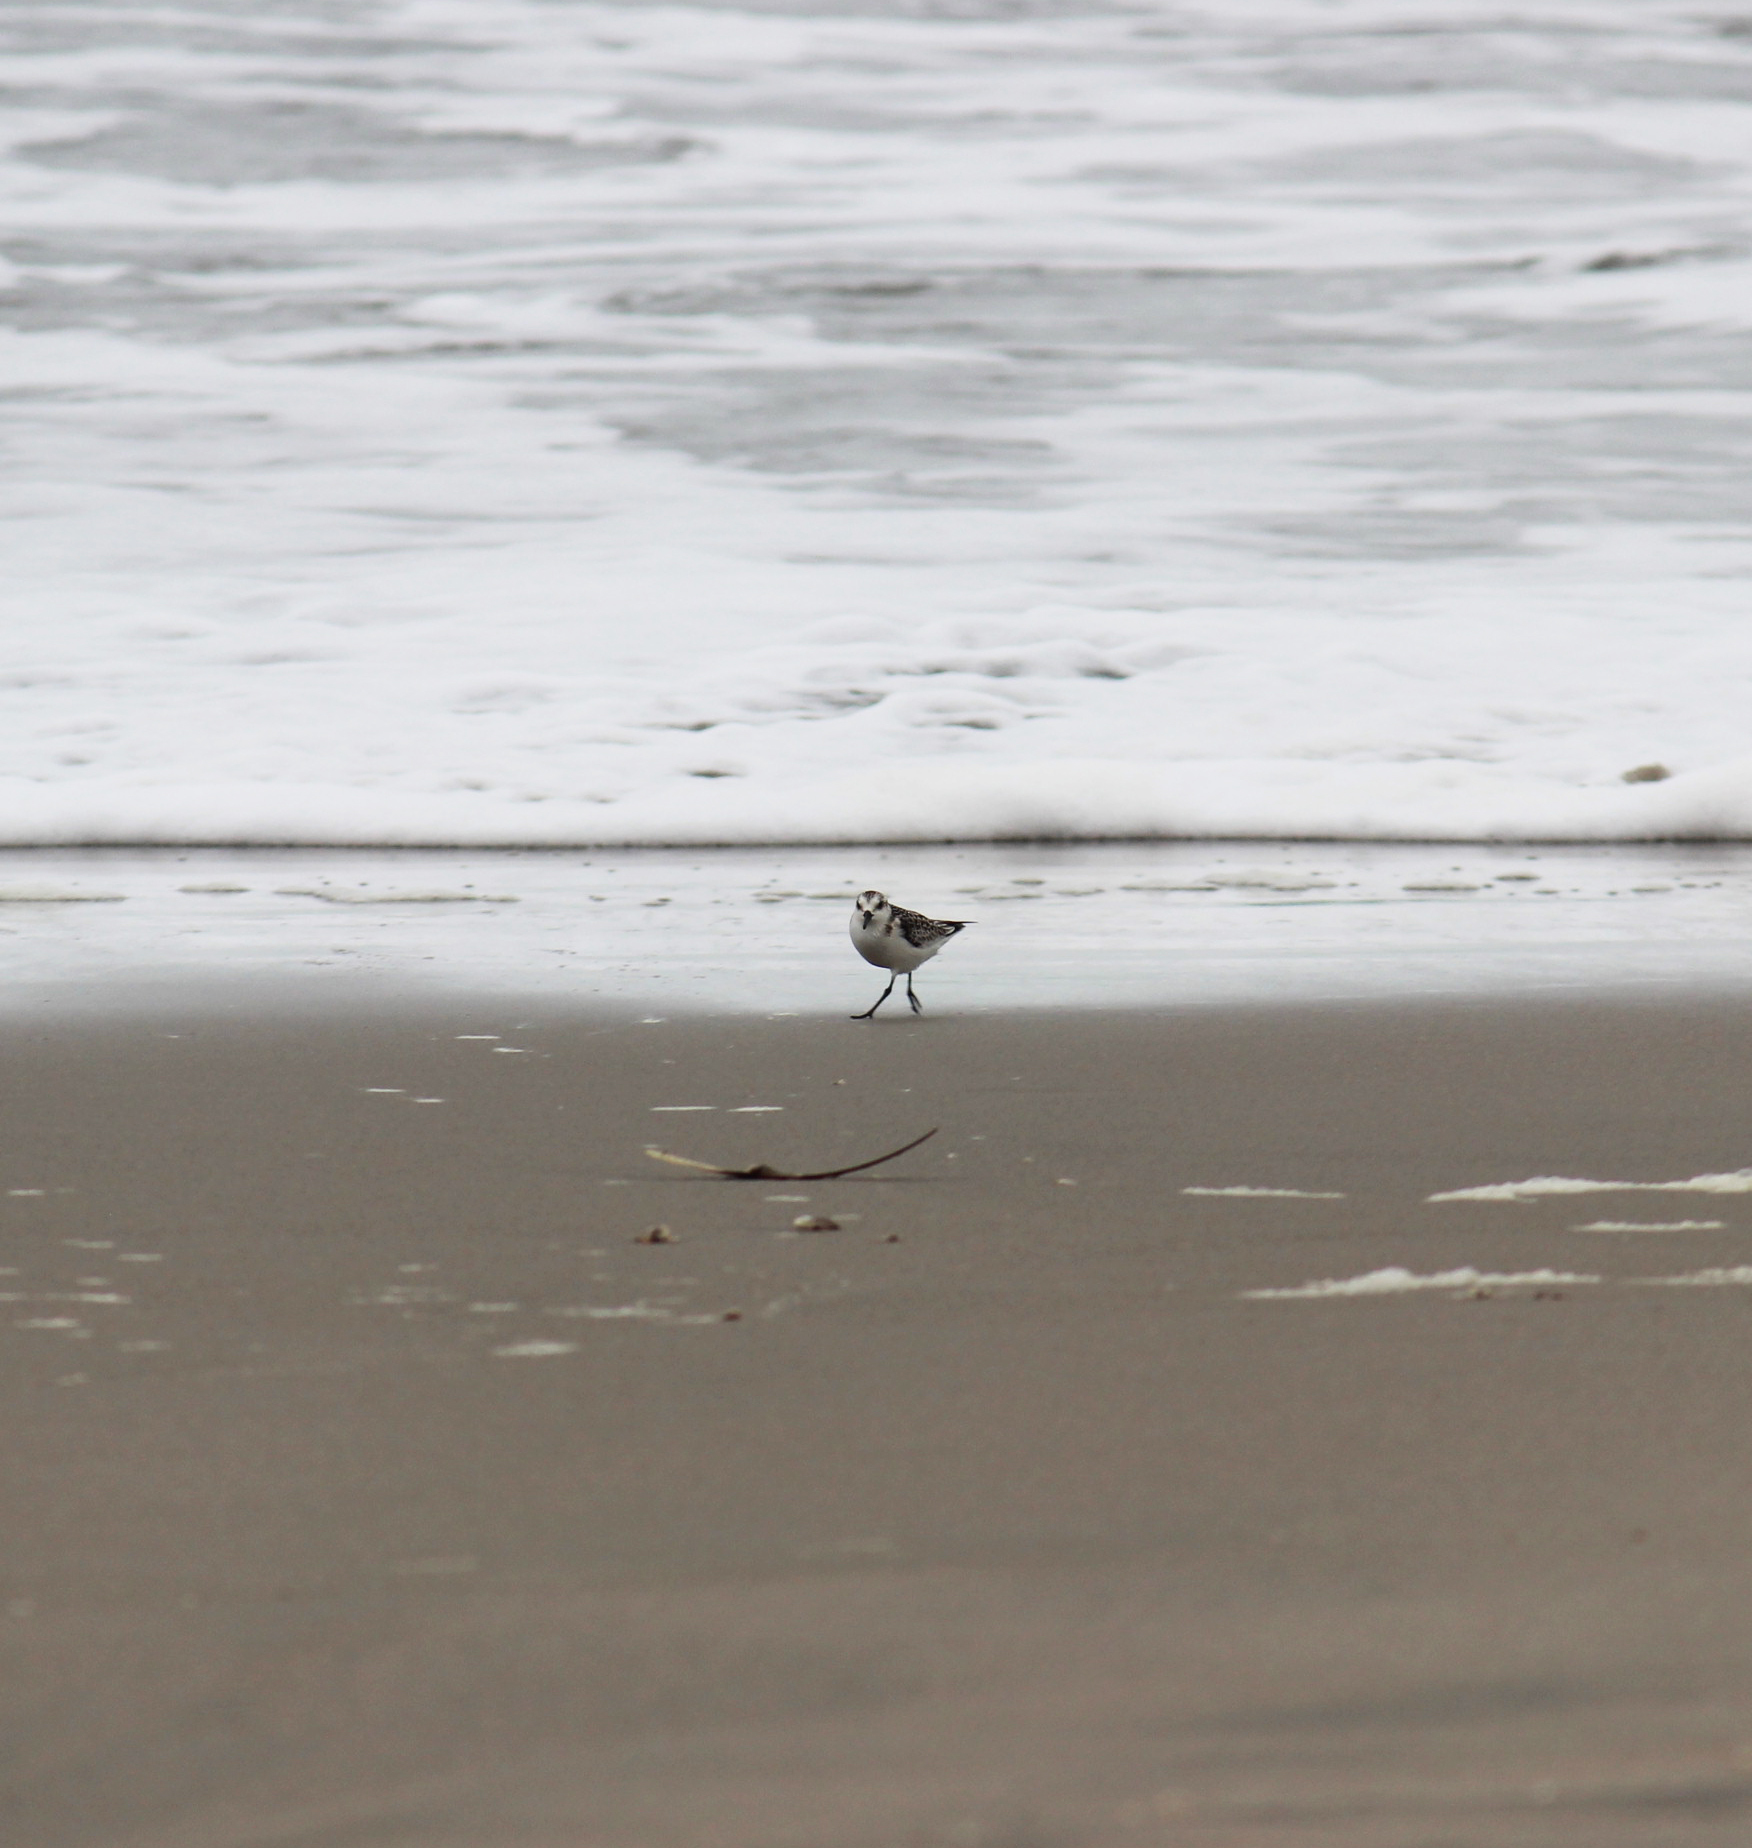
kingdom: Animalia
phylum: Chordata
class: Aves
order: Charadriiformes
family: Scolopacidae
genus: Calidris
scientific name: Calidris alba
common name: Sanderling
